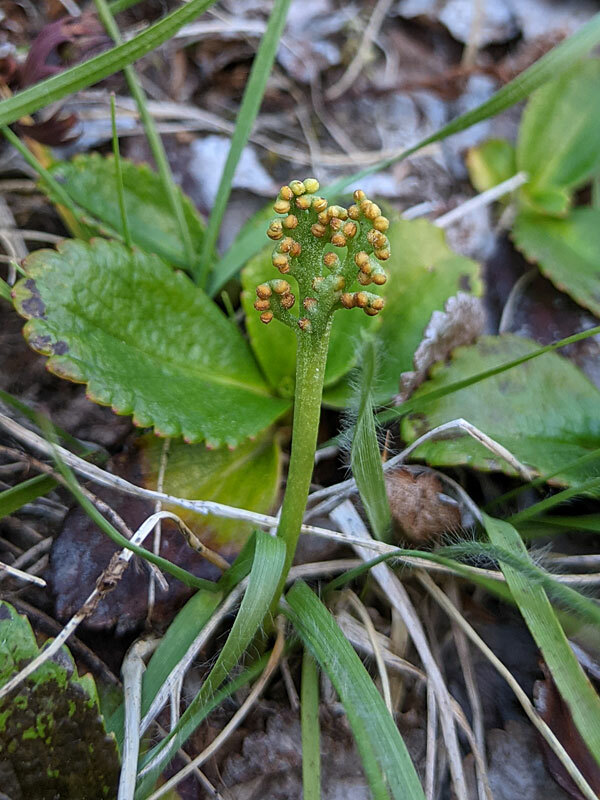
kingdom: Plantae
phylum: Tracheophyta
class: Polypodiopsida
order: Ophioglossales
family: Ophioglossaceae
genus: Botrychium
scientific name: Botrychium
